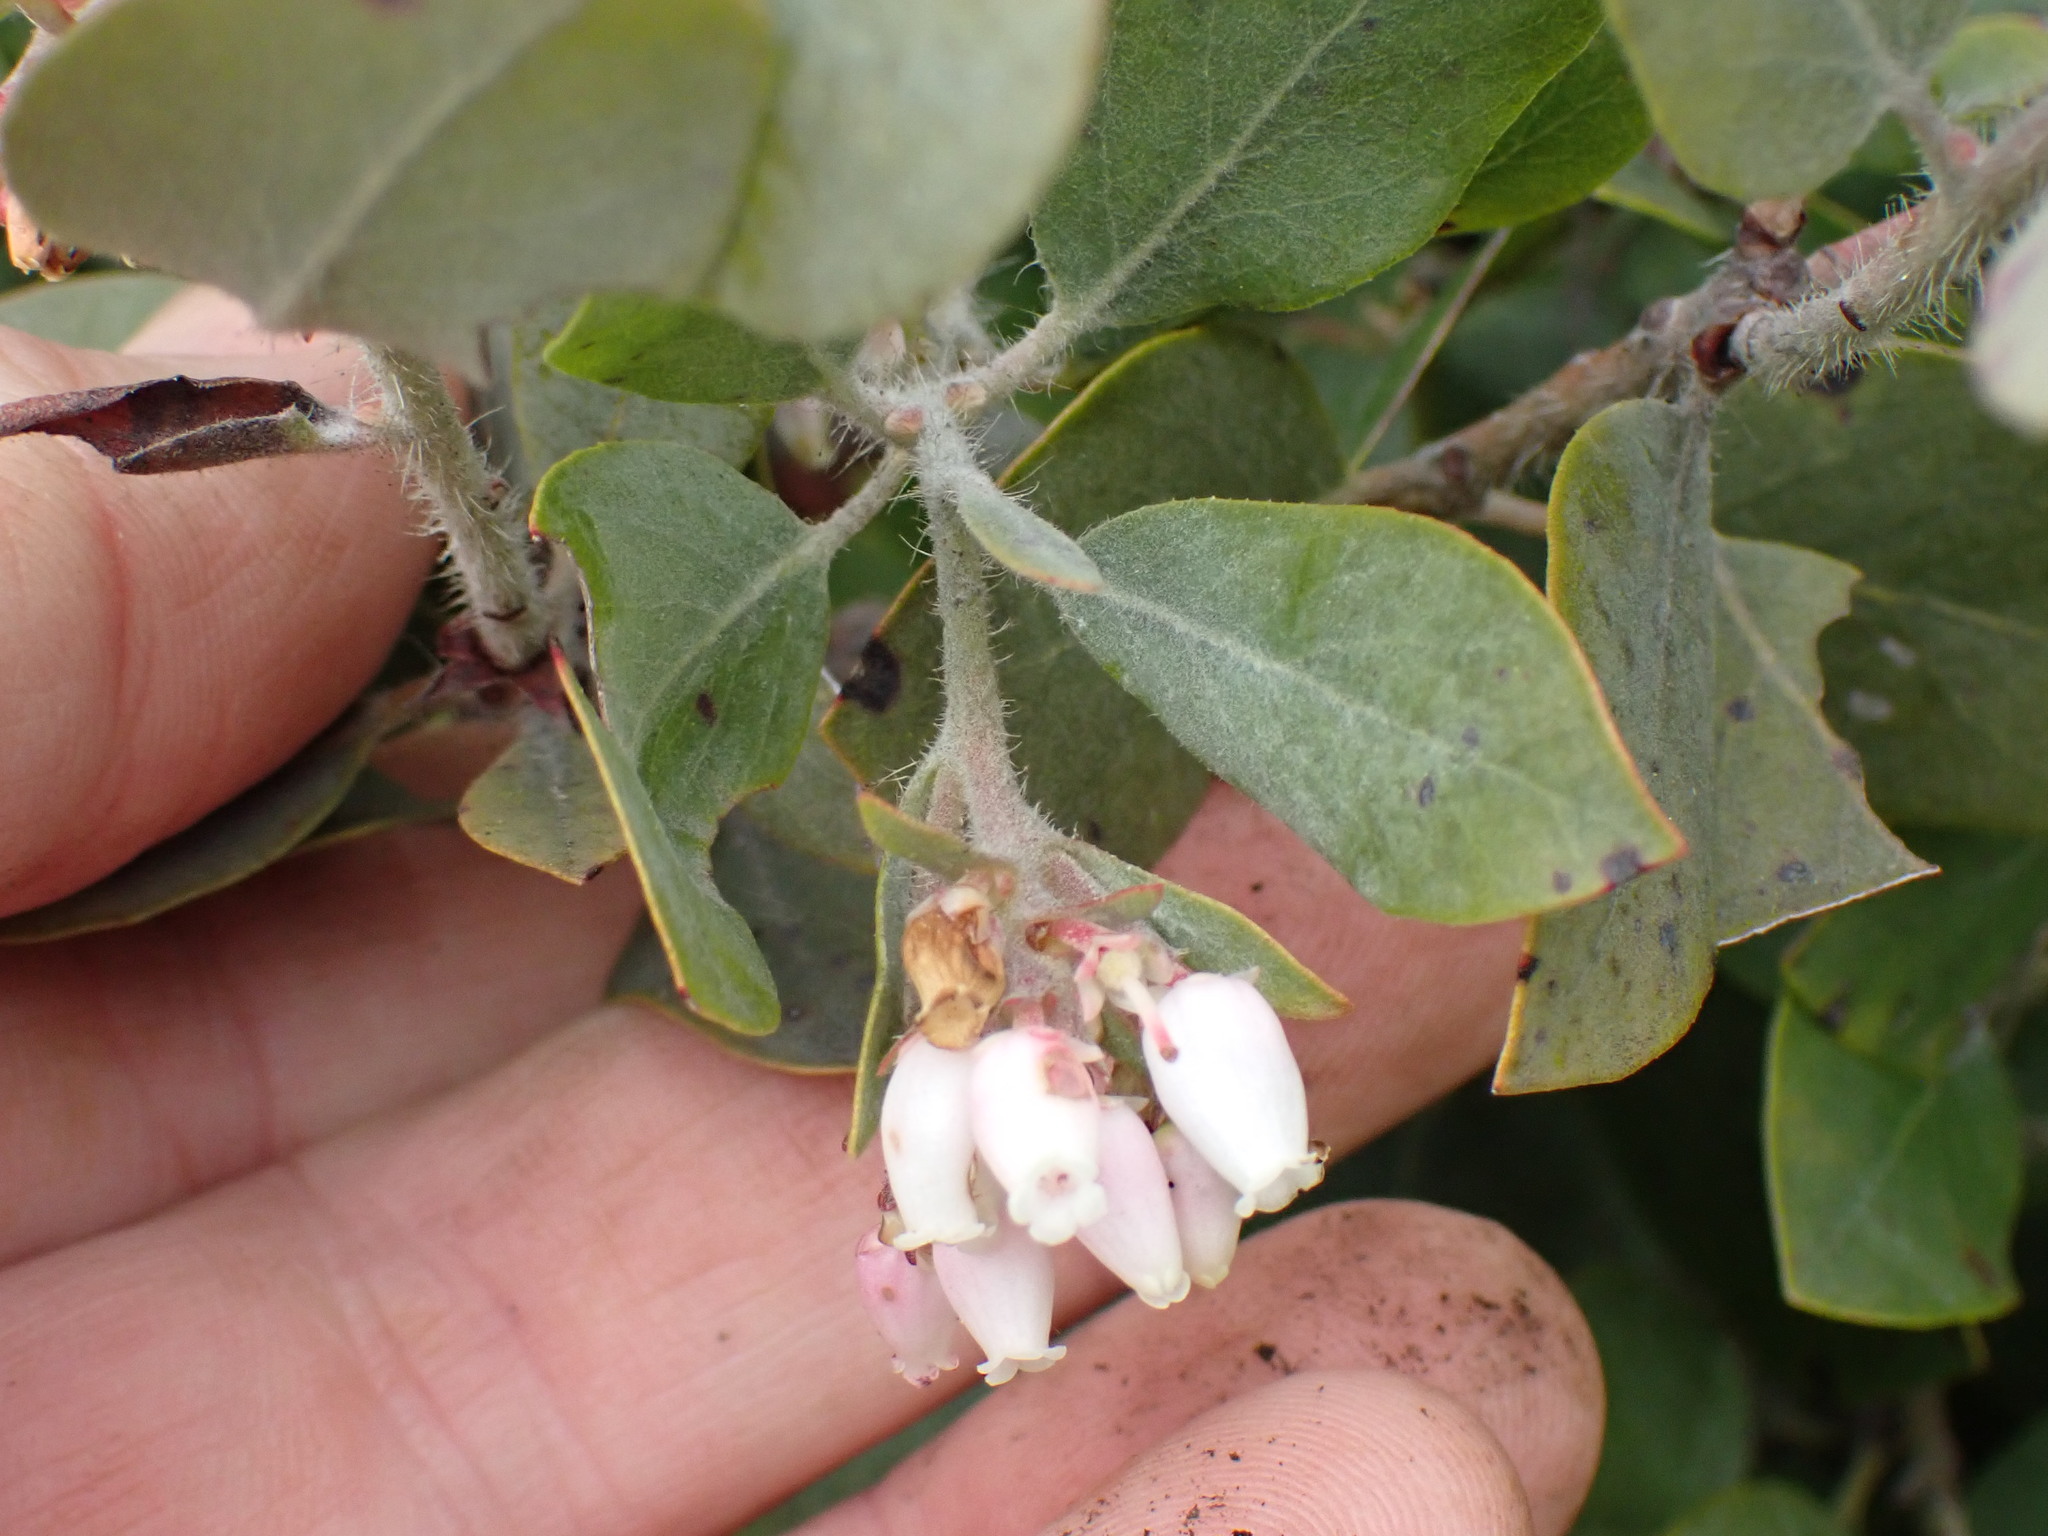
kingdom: Plantae
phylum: Tracheophyta
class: Magnoliopsida
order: Ericales
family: Ericaceae
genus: Arctostaphylos
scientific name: Arctostaphylos columbiana
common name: Bristly bearberry
